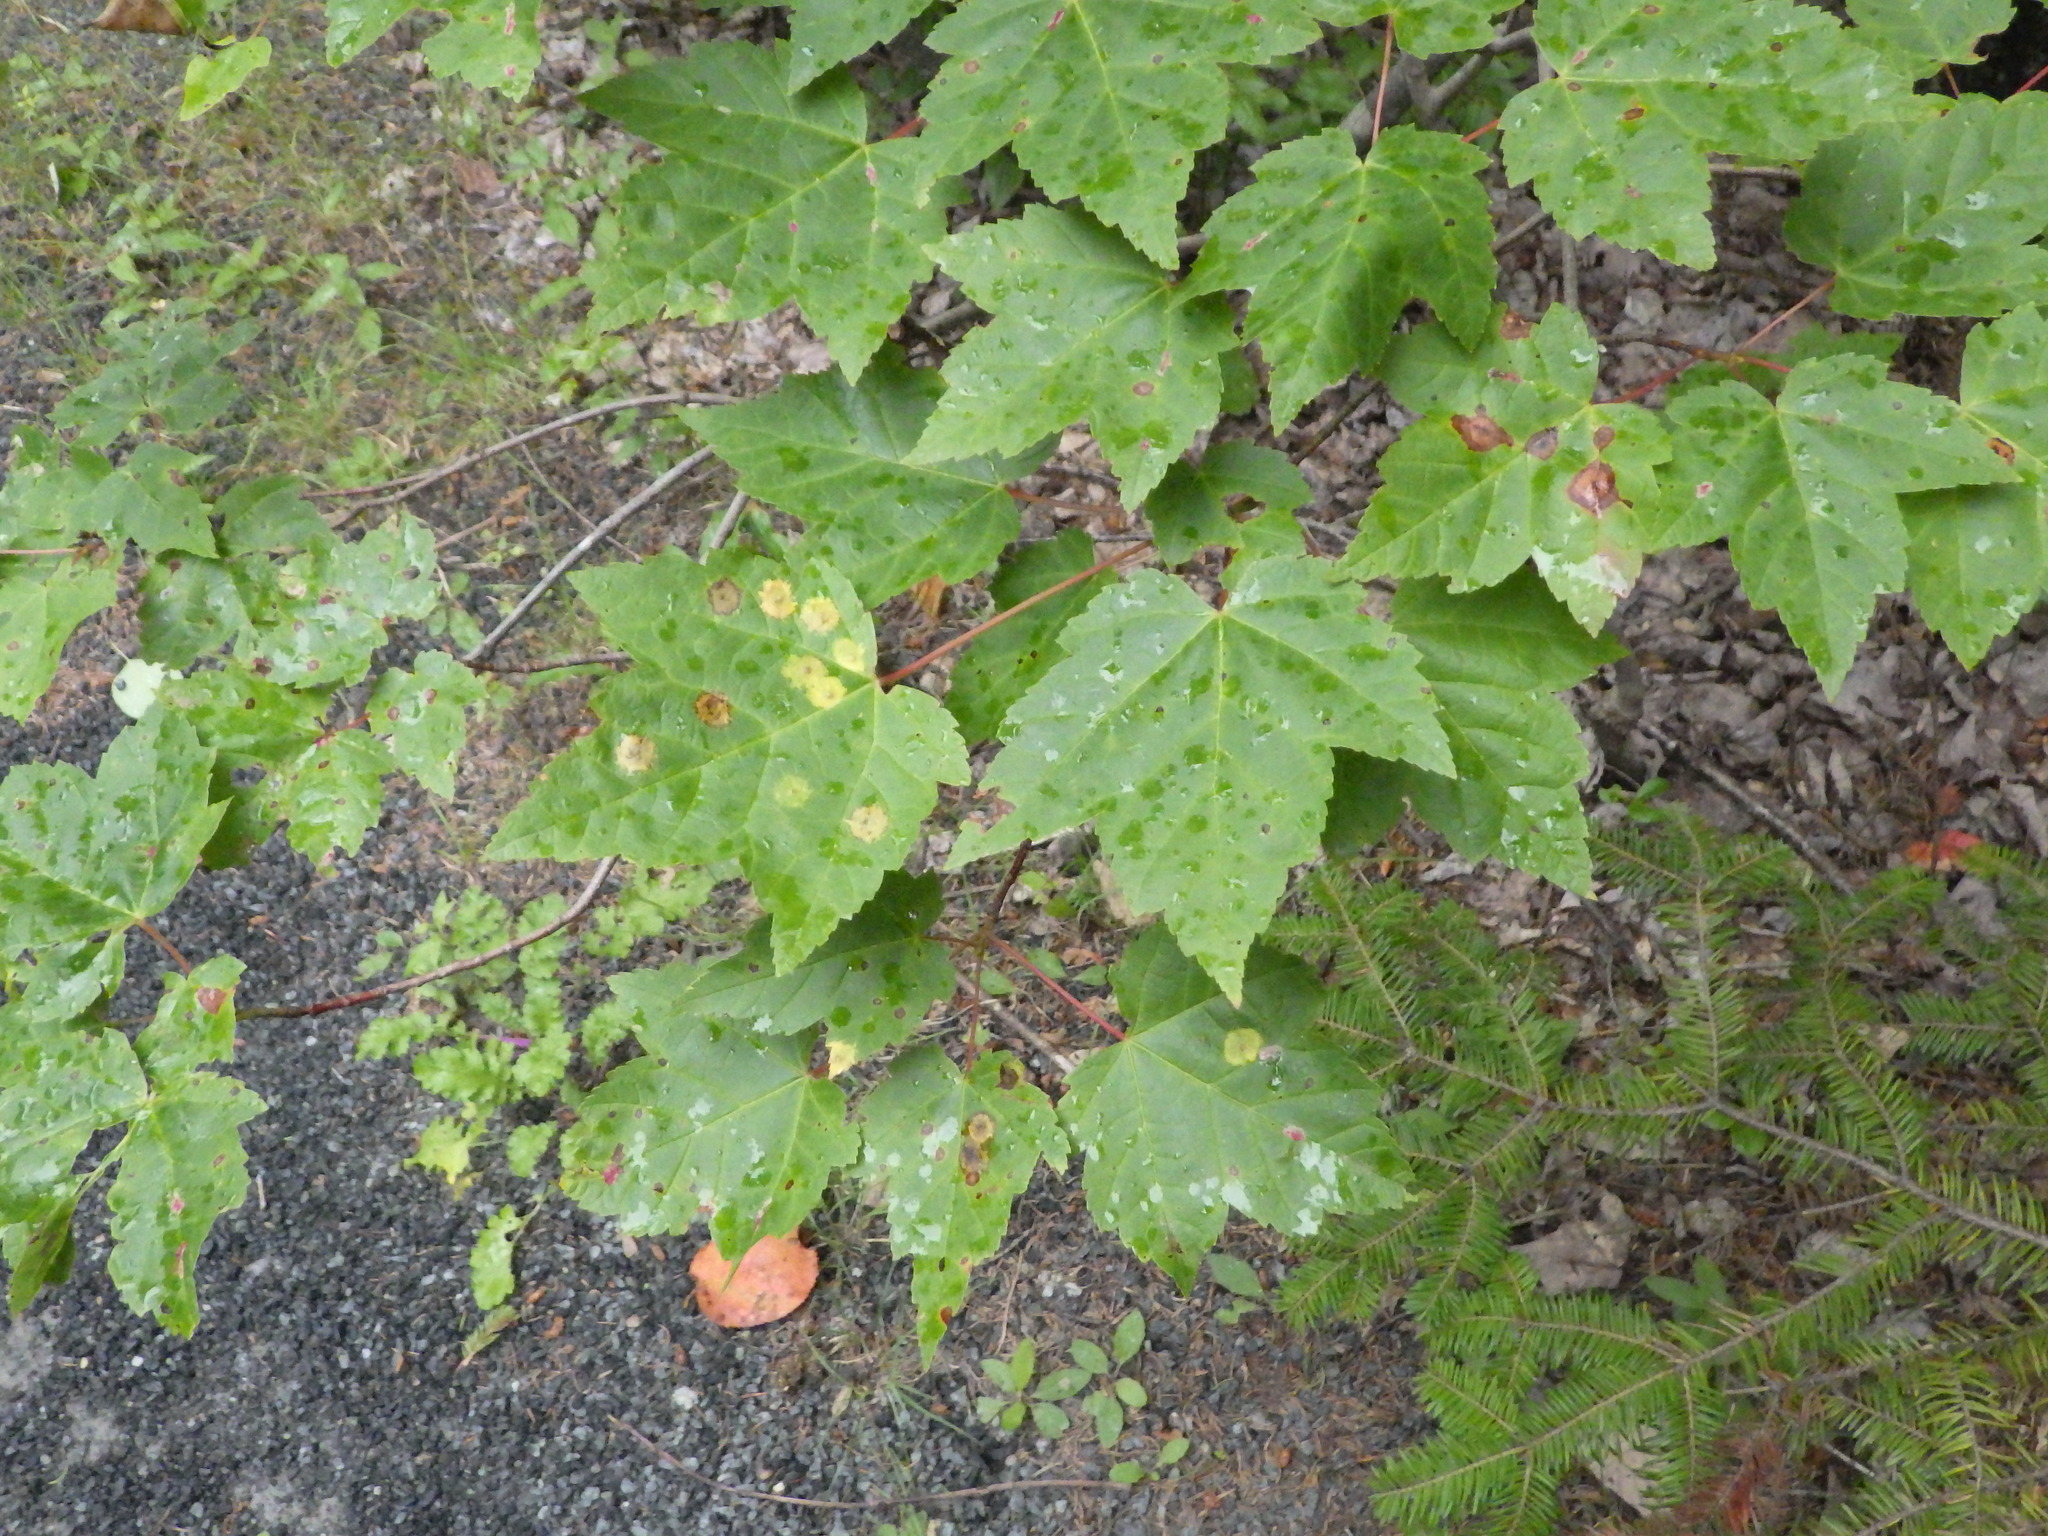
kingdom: Plantae
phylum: Tracheophyta
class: Magnoliopsida
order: Sapindales
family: Sapindaceae
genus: Acer
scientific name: Acer rubrum
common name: Red maple
